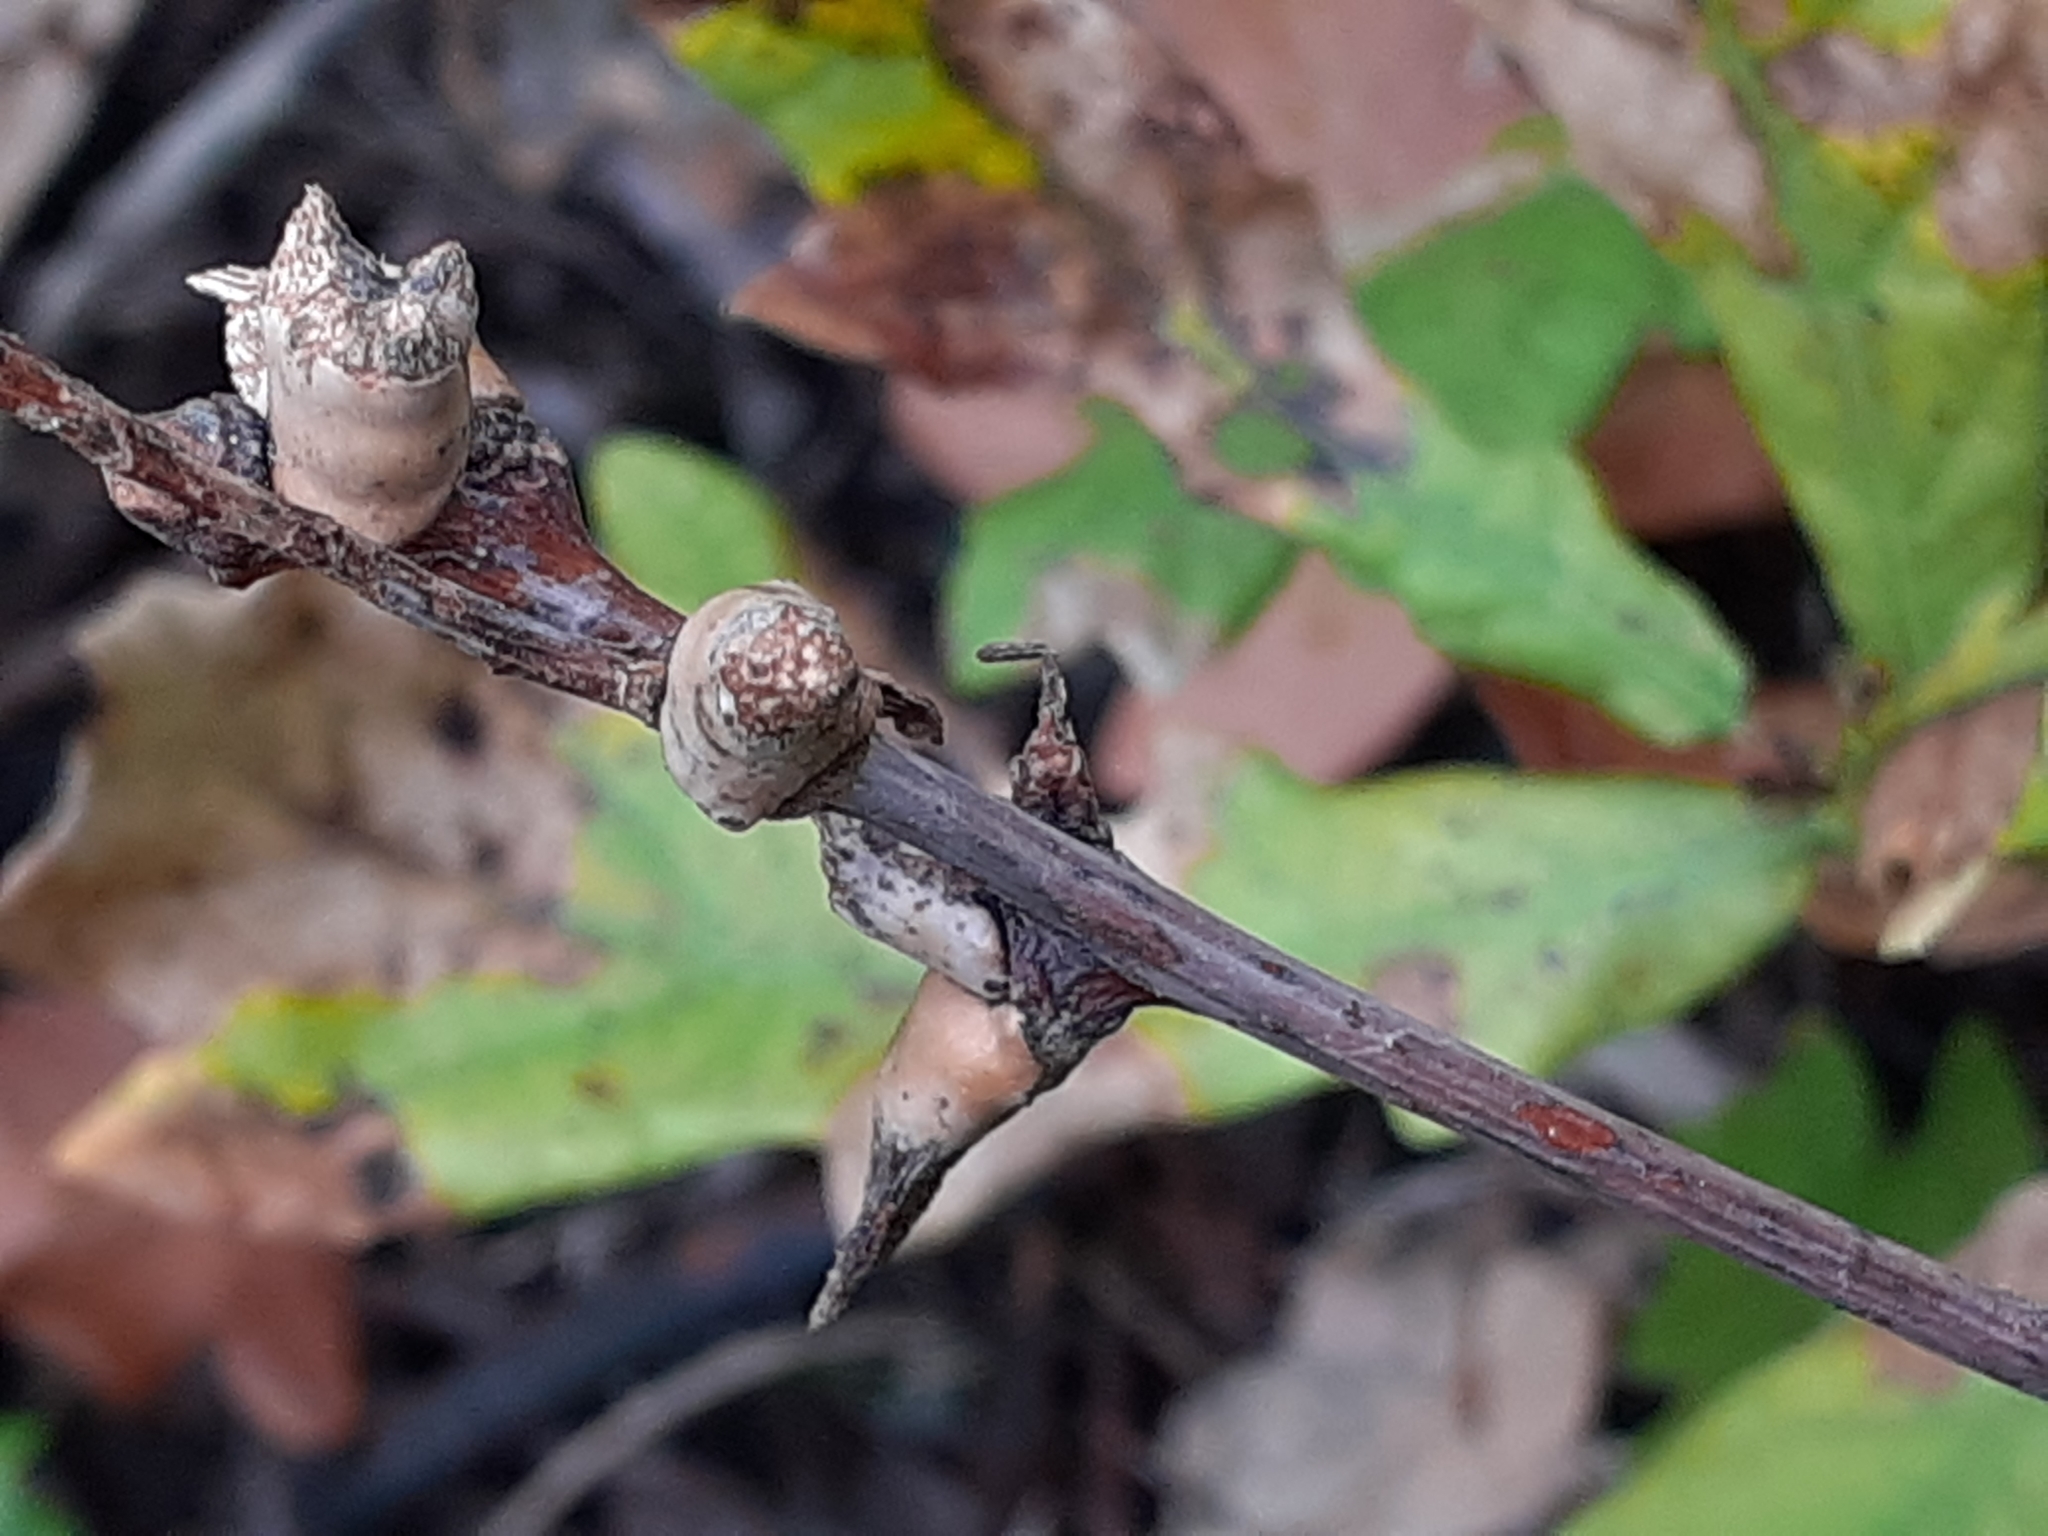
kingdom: Animalia
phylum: Arthropoda
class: Insecta
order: Hymenoptera
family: Cynipidae
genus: Andricus
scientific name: Andricus aries
